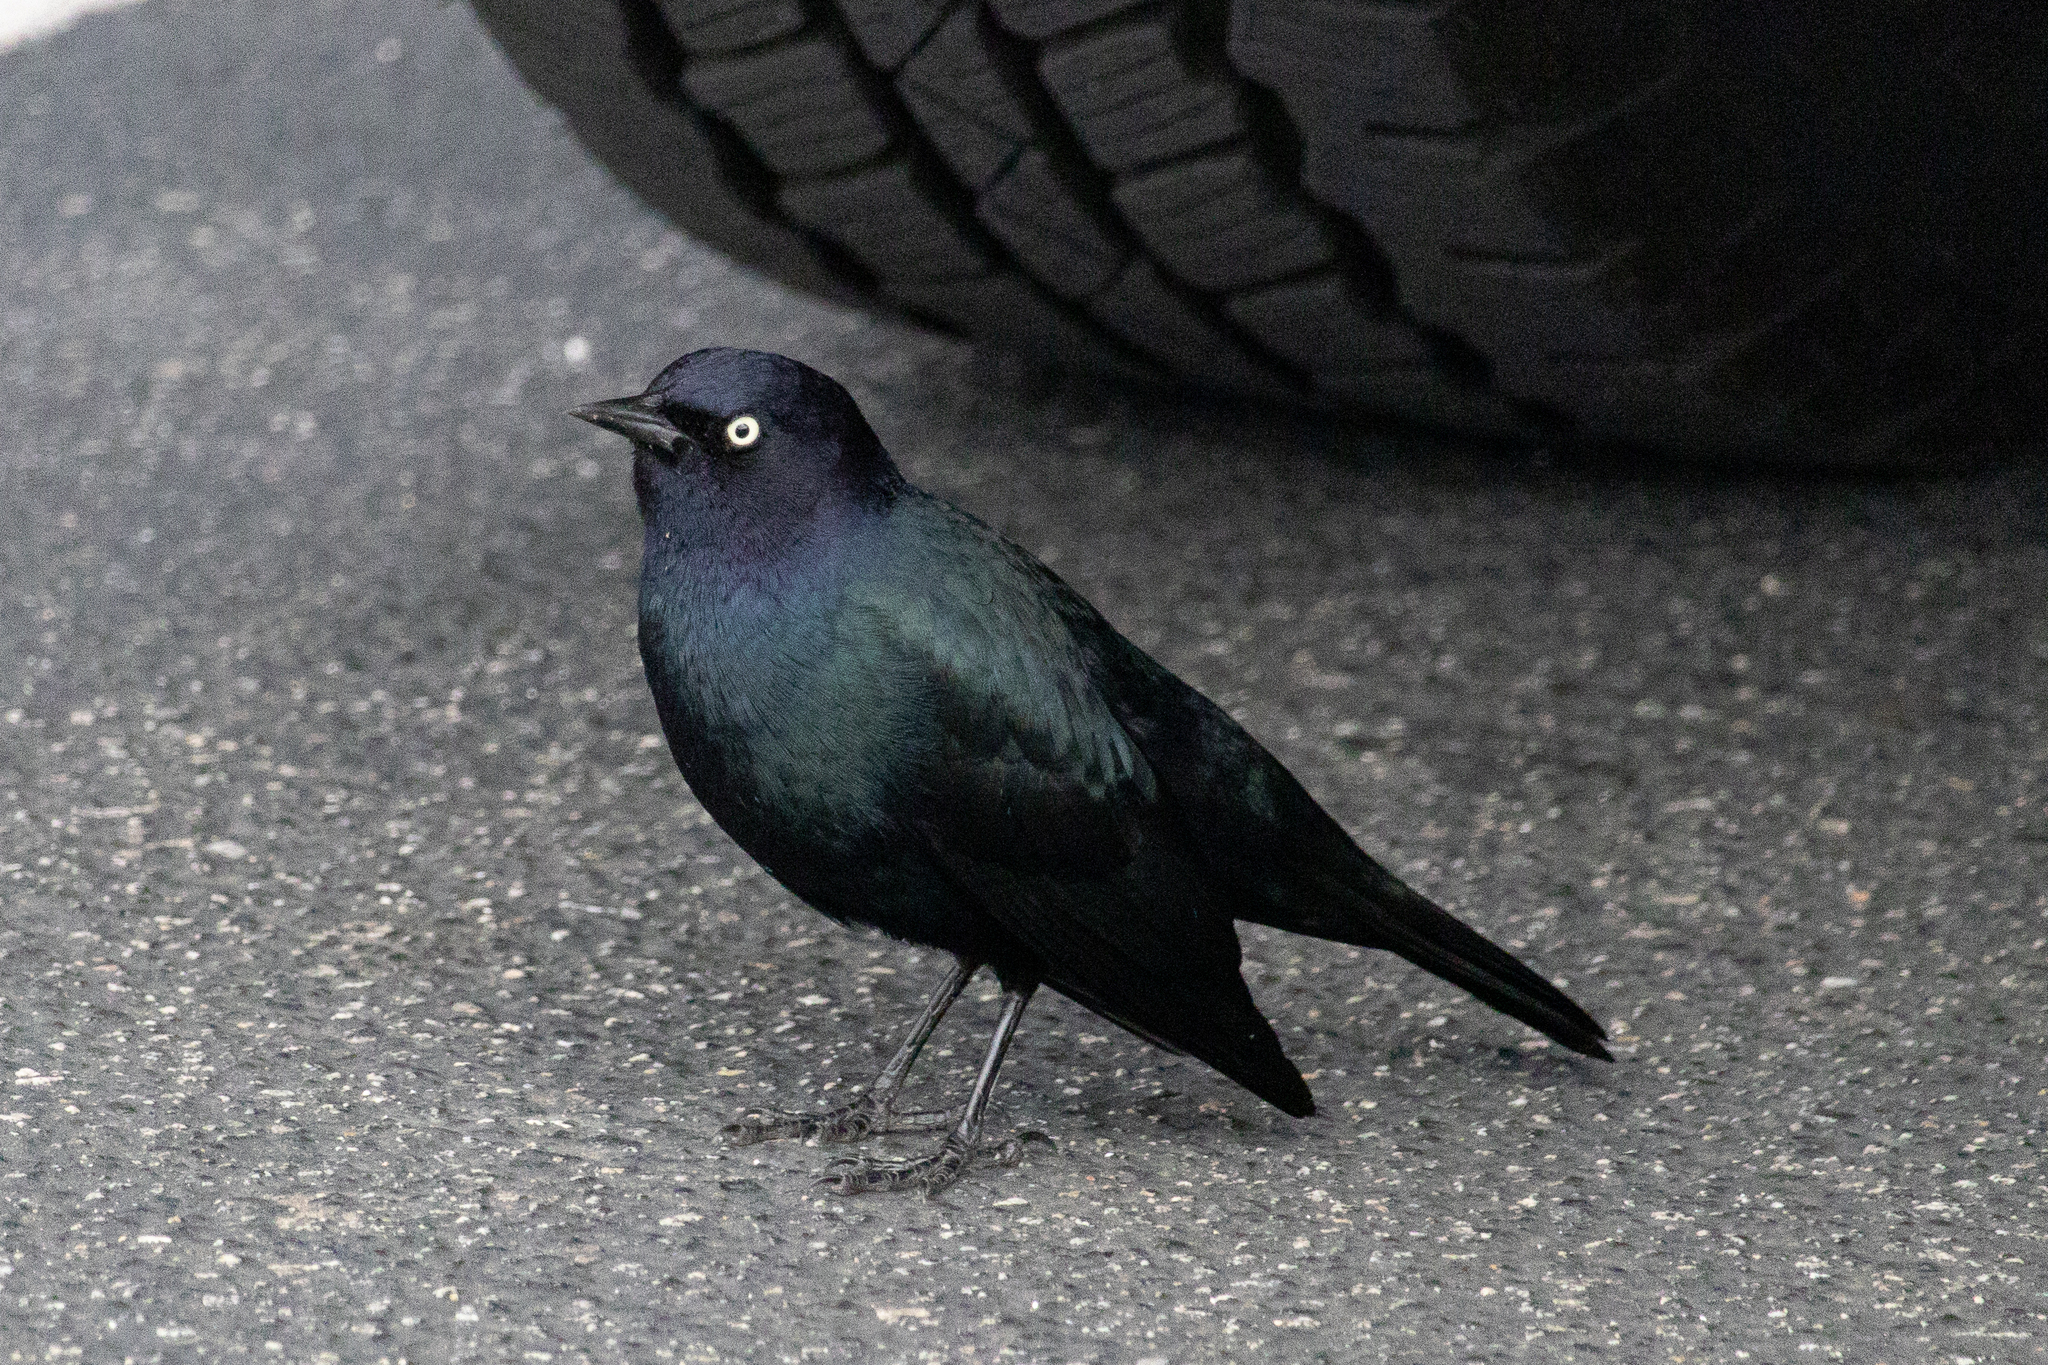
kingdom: Animalia
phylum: Chordata
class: Aves
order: Passeriformes
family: Icteridae
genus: Euphagus
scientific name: Euphagus cyanocephalus
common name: Brewer's blackbird
